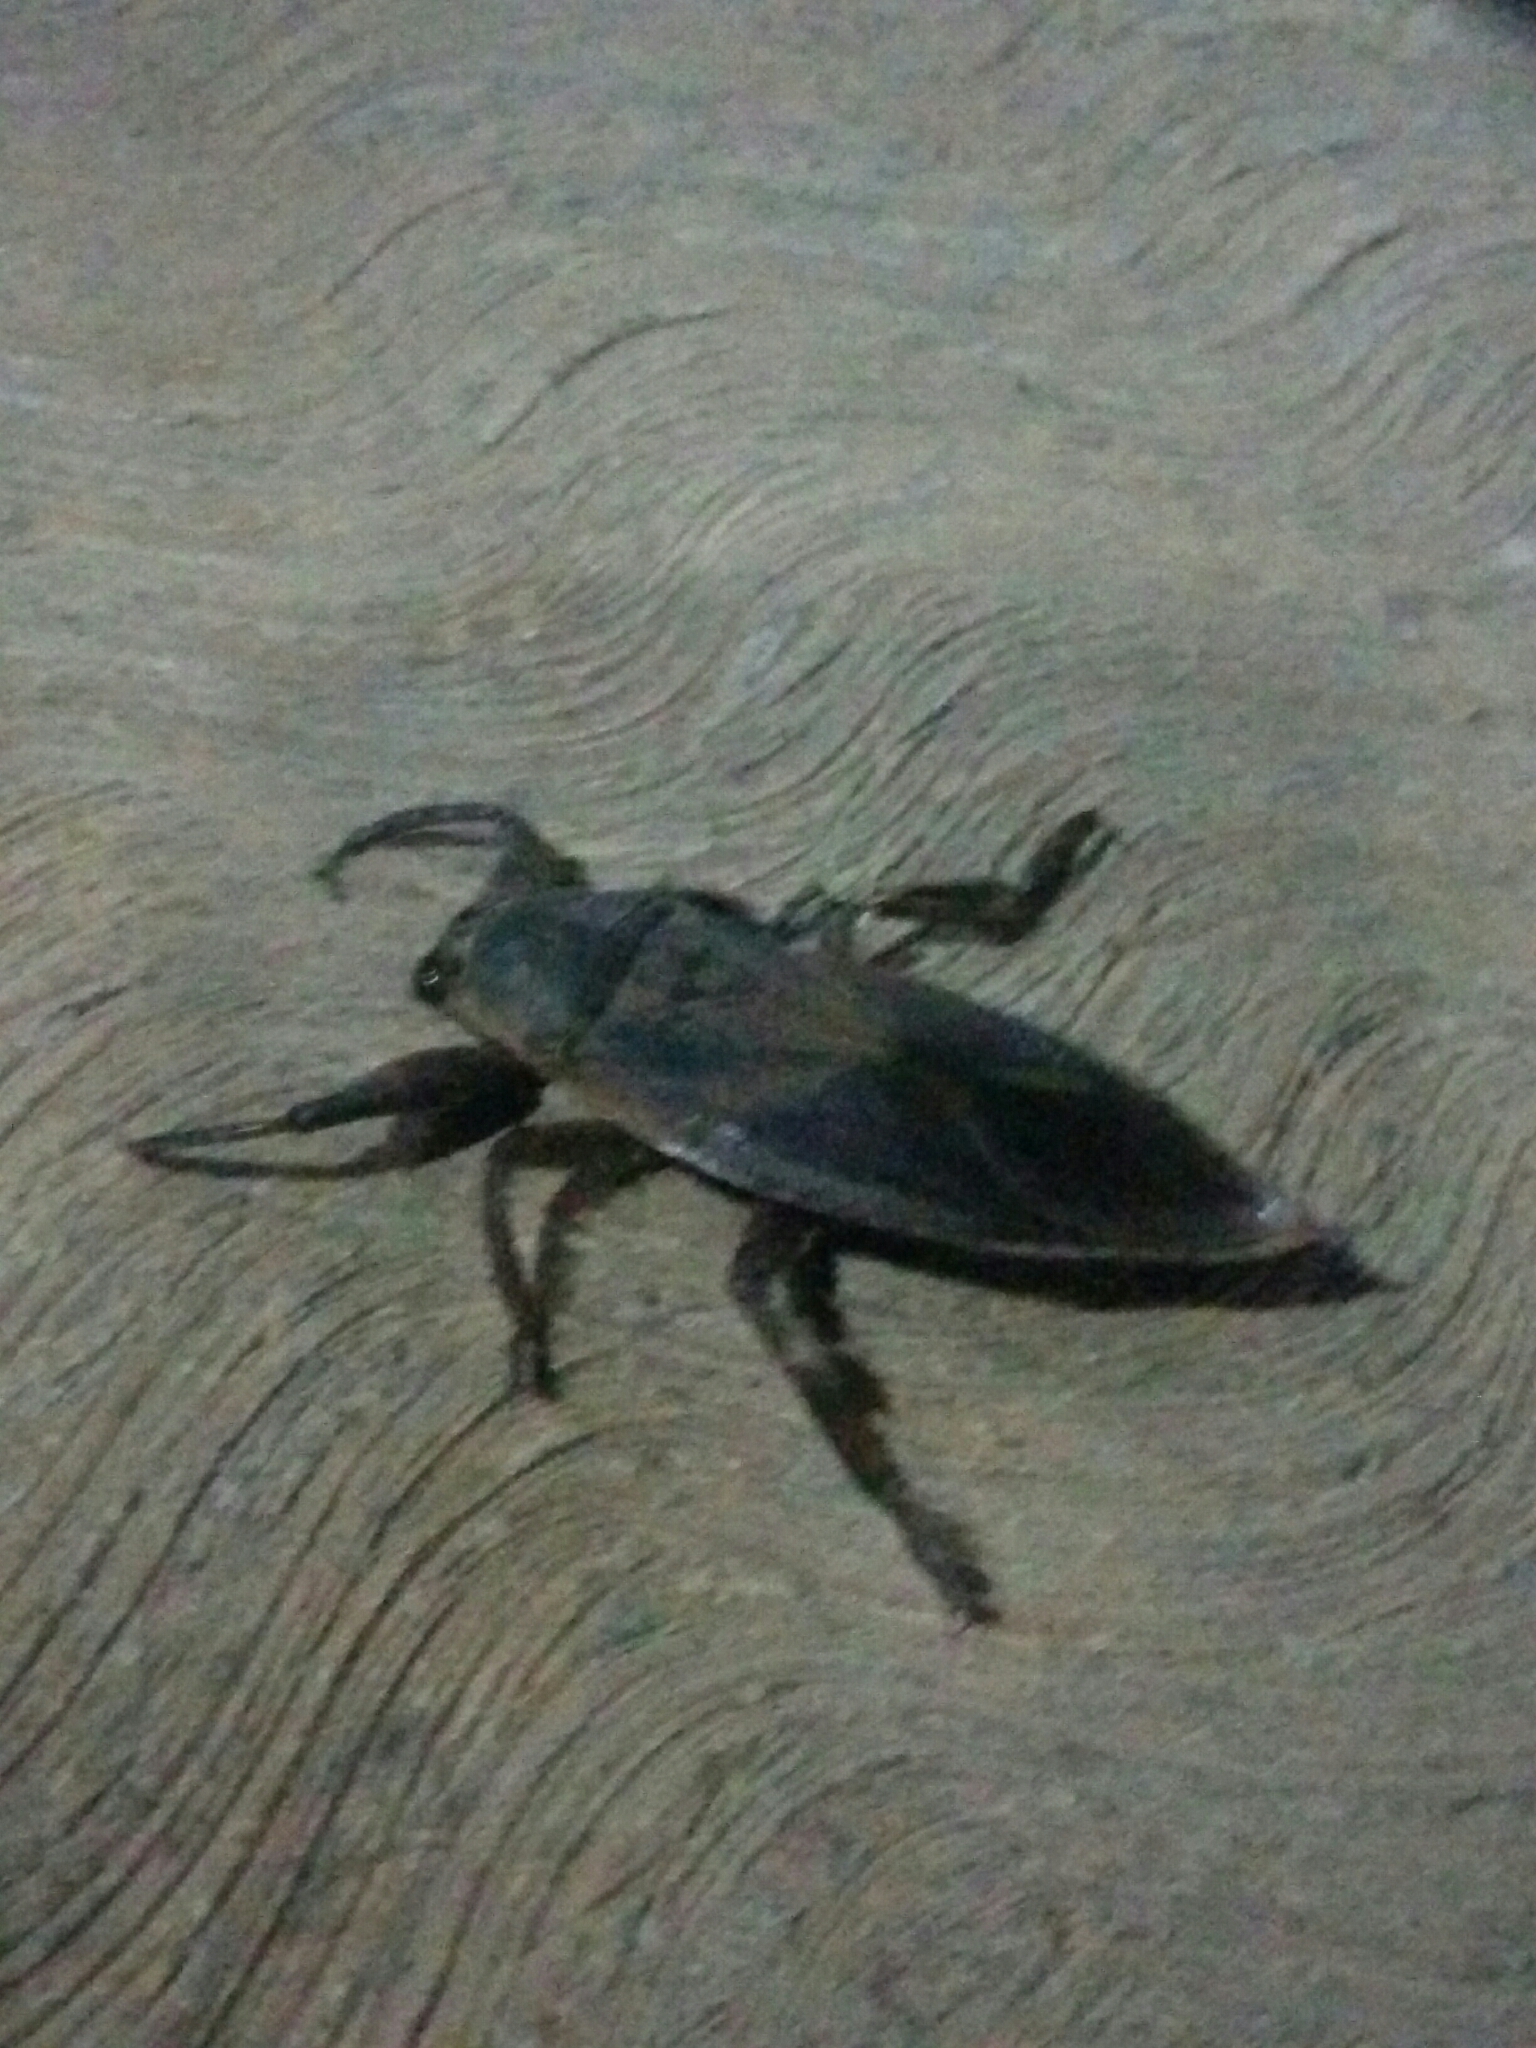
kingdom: Animalia
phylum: Arthropoda
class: Insecta
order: Hemiptera
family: Belostomatidae
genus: Lethocerus
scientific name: Lethocerus
